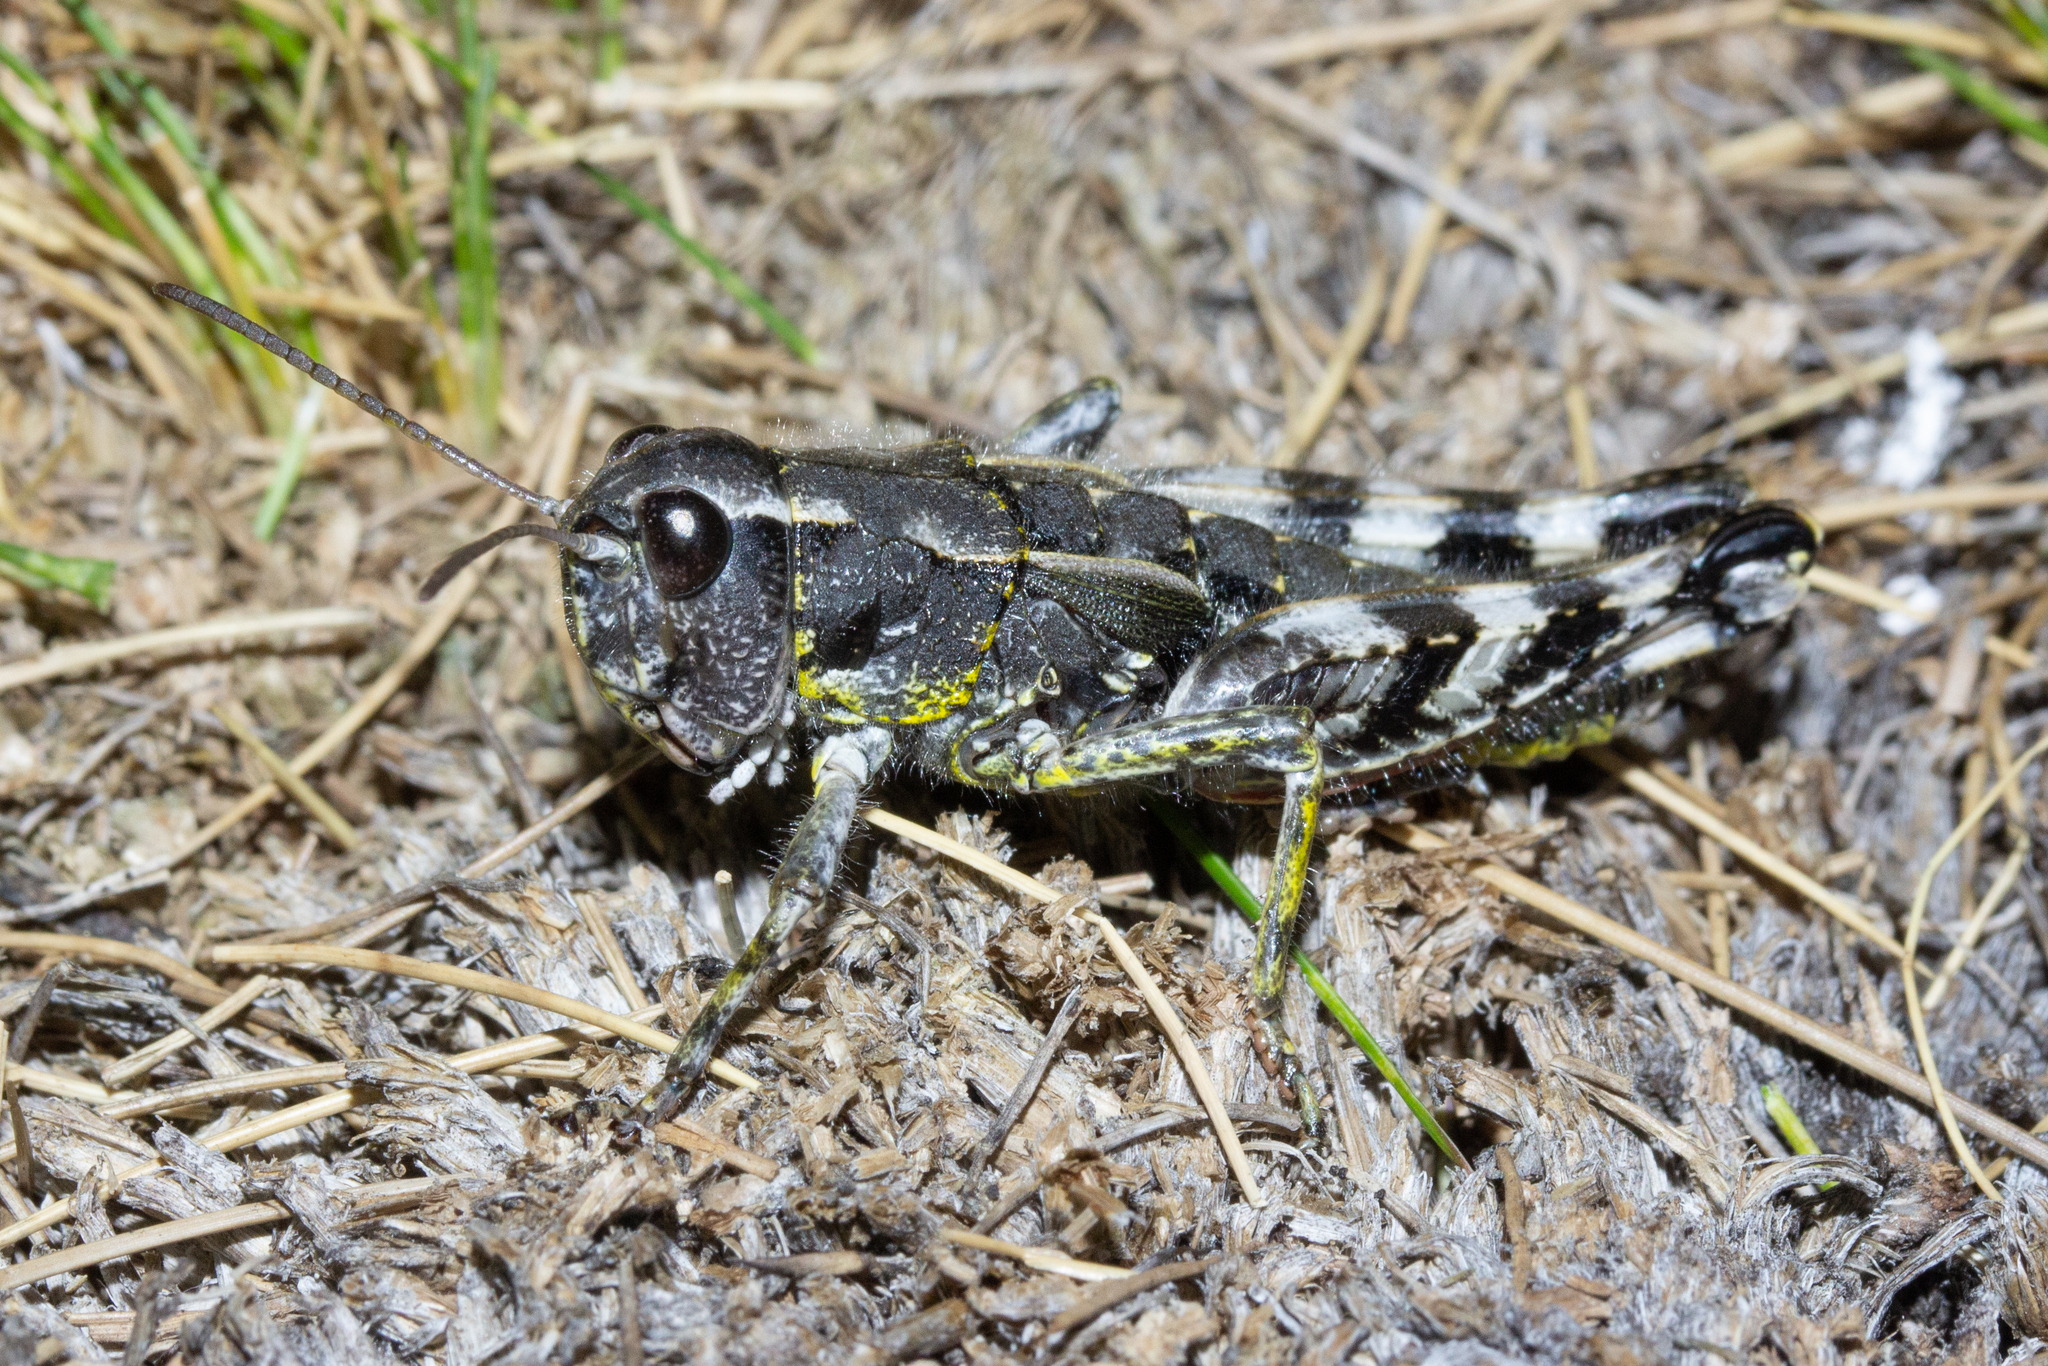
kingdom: Animalia
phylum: Arthropoda
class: Insecta
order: Orthoptera
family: Acrididae
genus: Sigaus
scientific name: Sigaus australis
